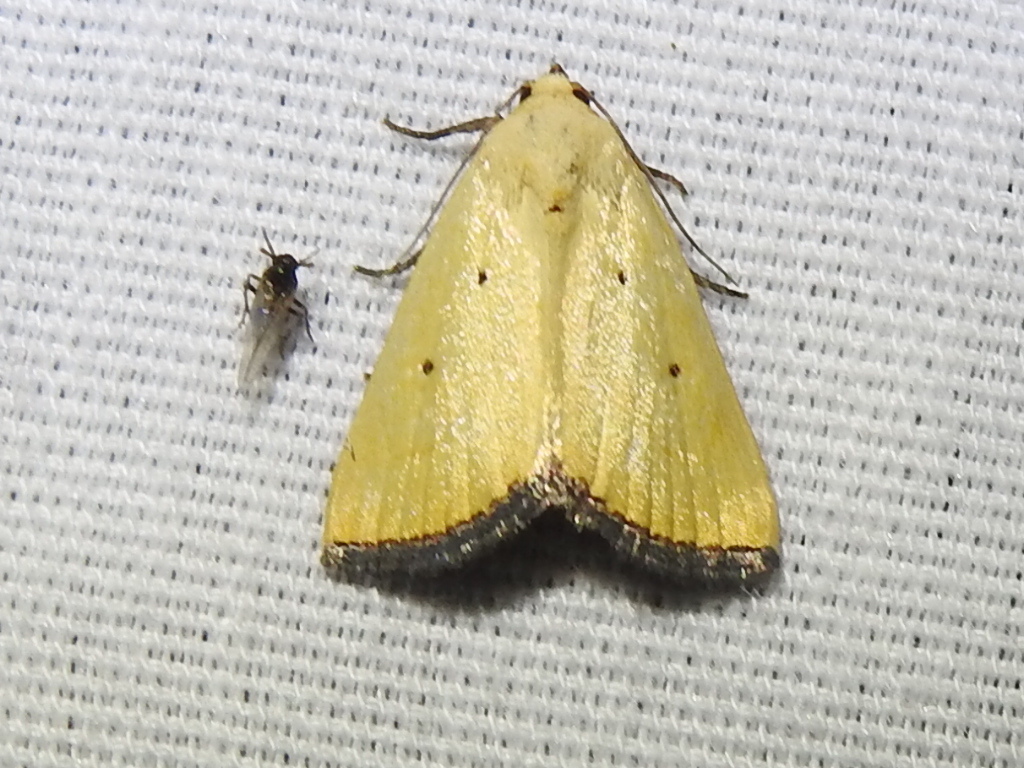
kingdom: Animalia
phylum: Arthropoda
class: Insecta
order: Lepidoptera
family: Noctuidae
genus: Marimatha
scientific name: Marimatha nigrofimbria
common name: Black-bordered lemon moth
